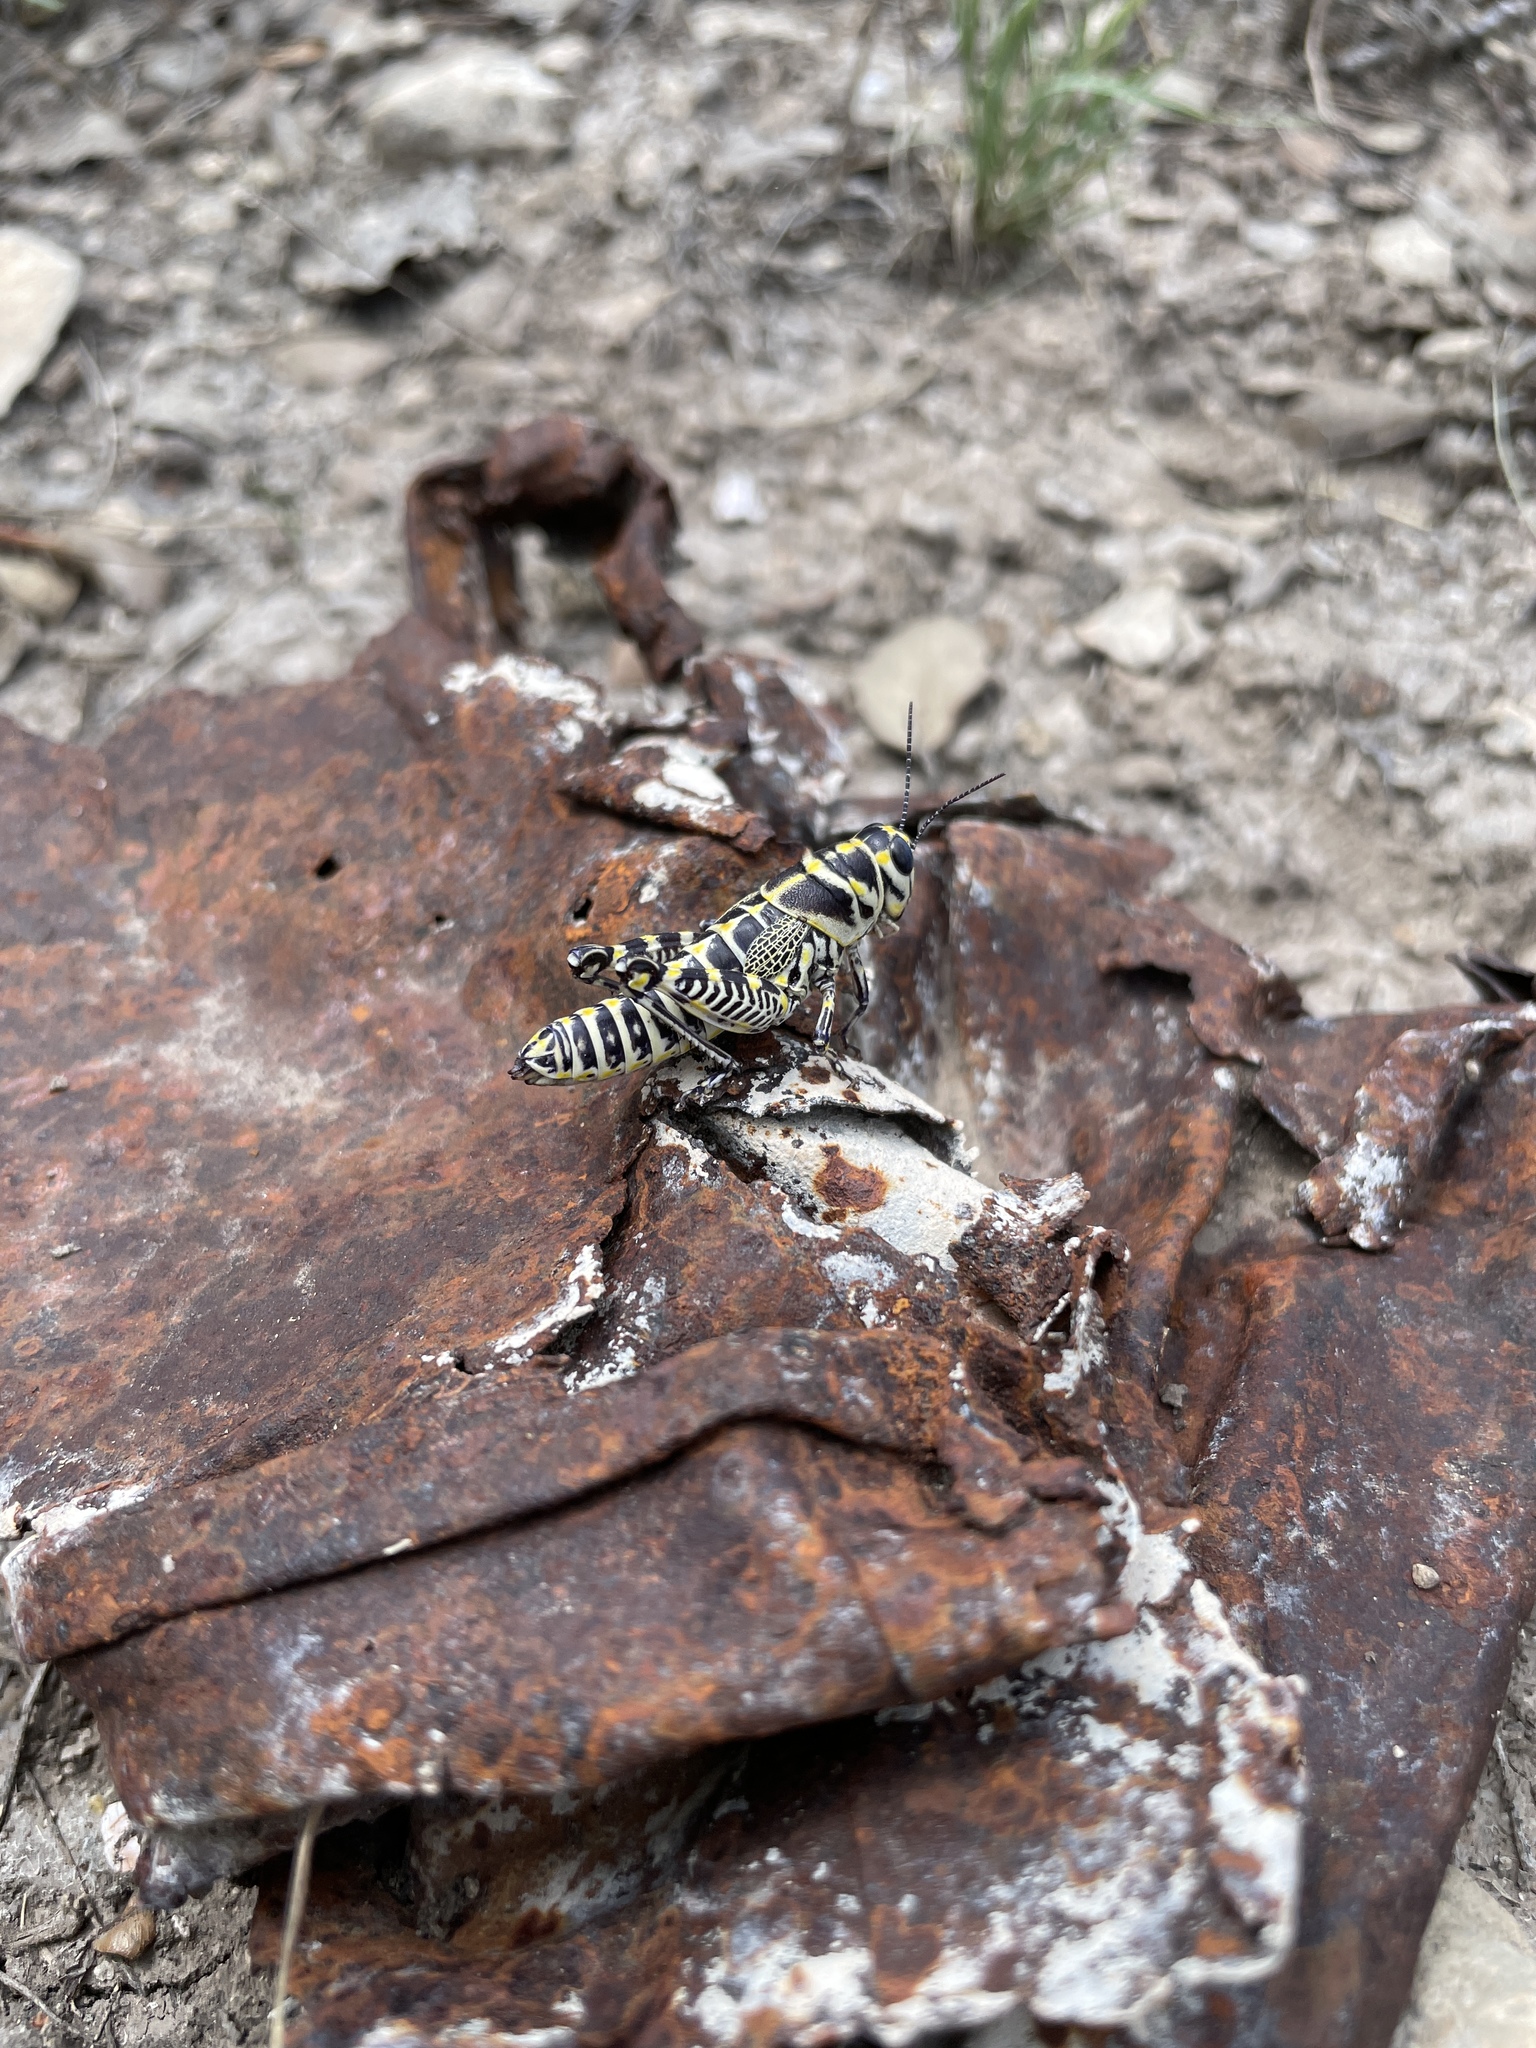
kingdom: Animalia
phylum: Arthropoda
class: Insecta
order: Orthoptera
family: Acrididae
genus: Dactylotum
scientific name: Dactylotum bicolor
